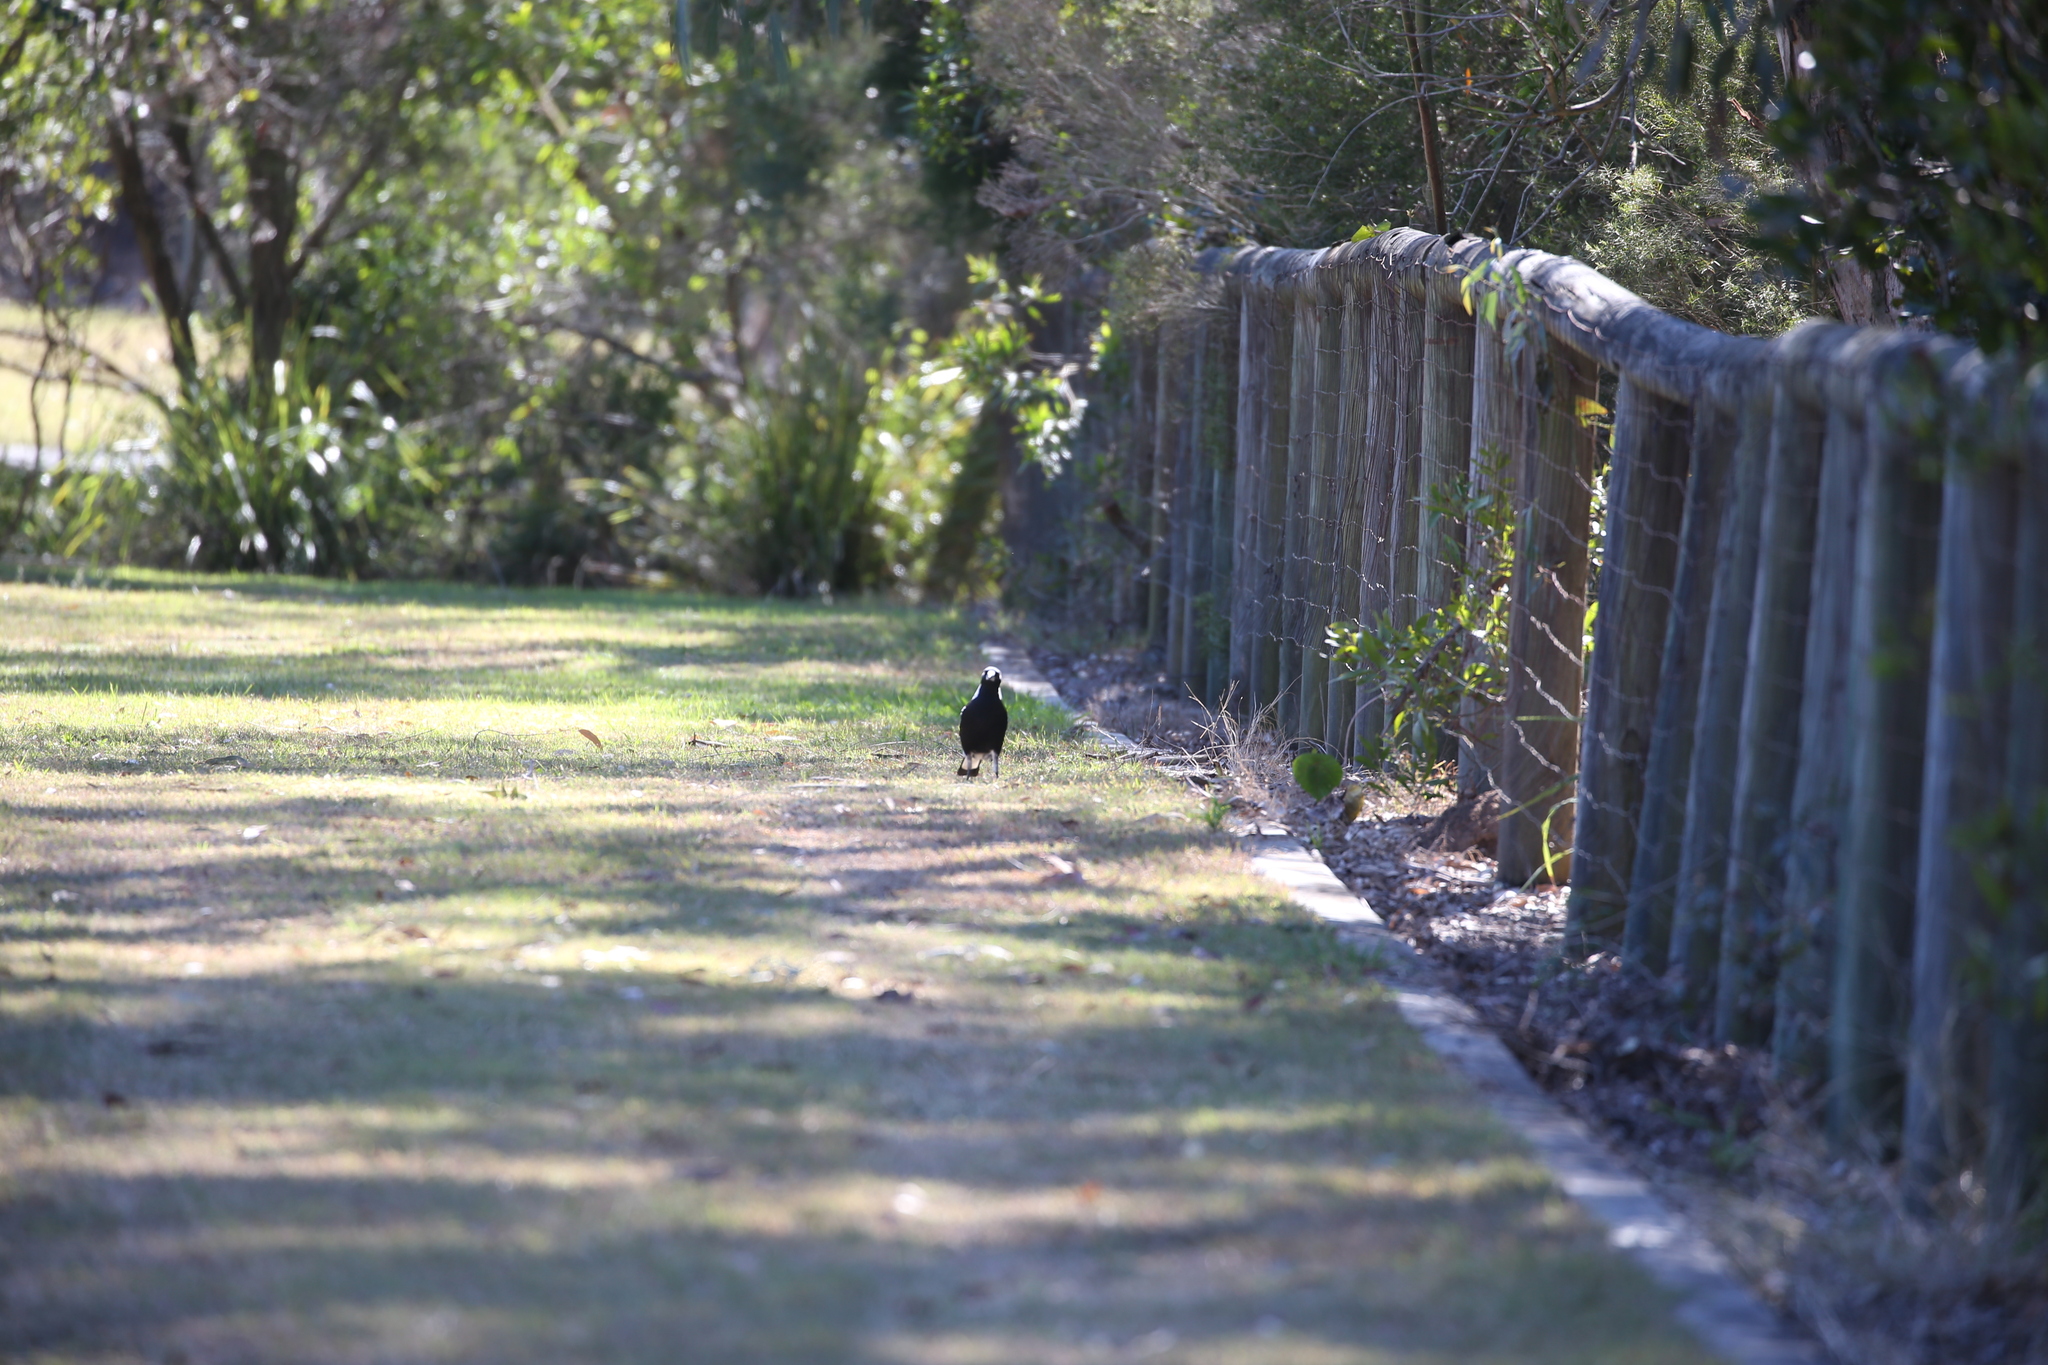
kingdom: Animalia
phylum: Chordata
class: Aves
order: Passeriformes
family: Cracticidae
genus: Gymnorhina
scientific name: Gymnorhina tibicen
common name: Australian magpie
